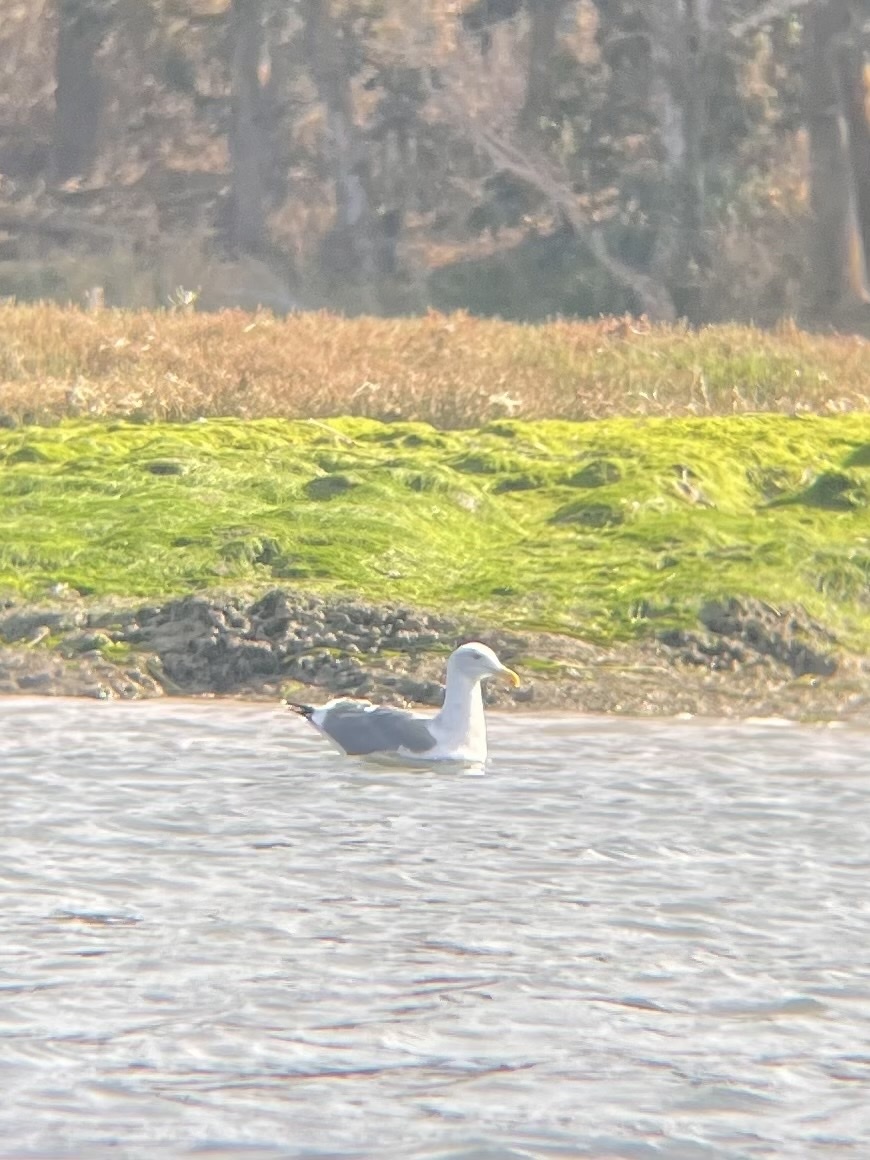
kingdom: Animalia
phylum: Chordata
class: Aves
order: Charadriiformes
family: Laridae
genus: Larus
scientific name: Larus occidentalis
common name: Western gull
